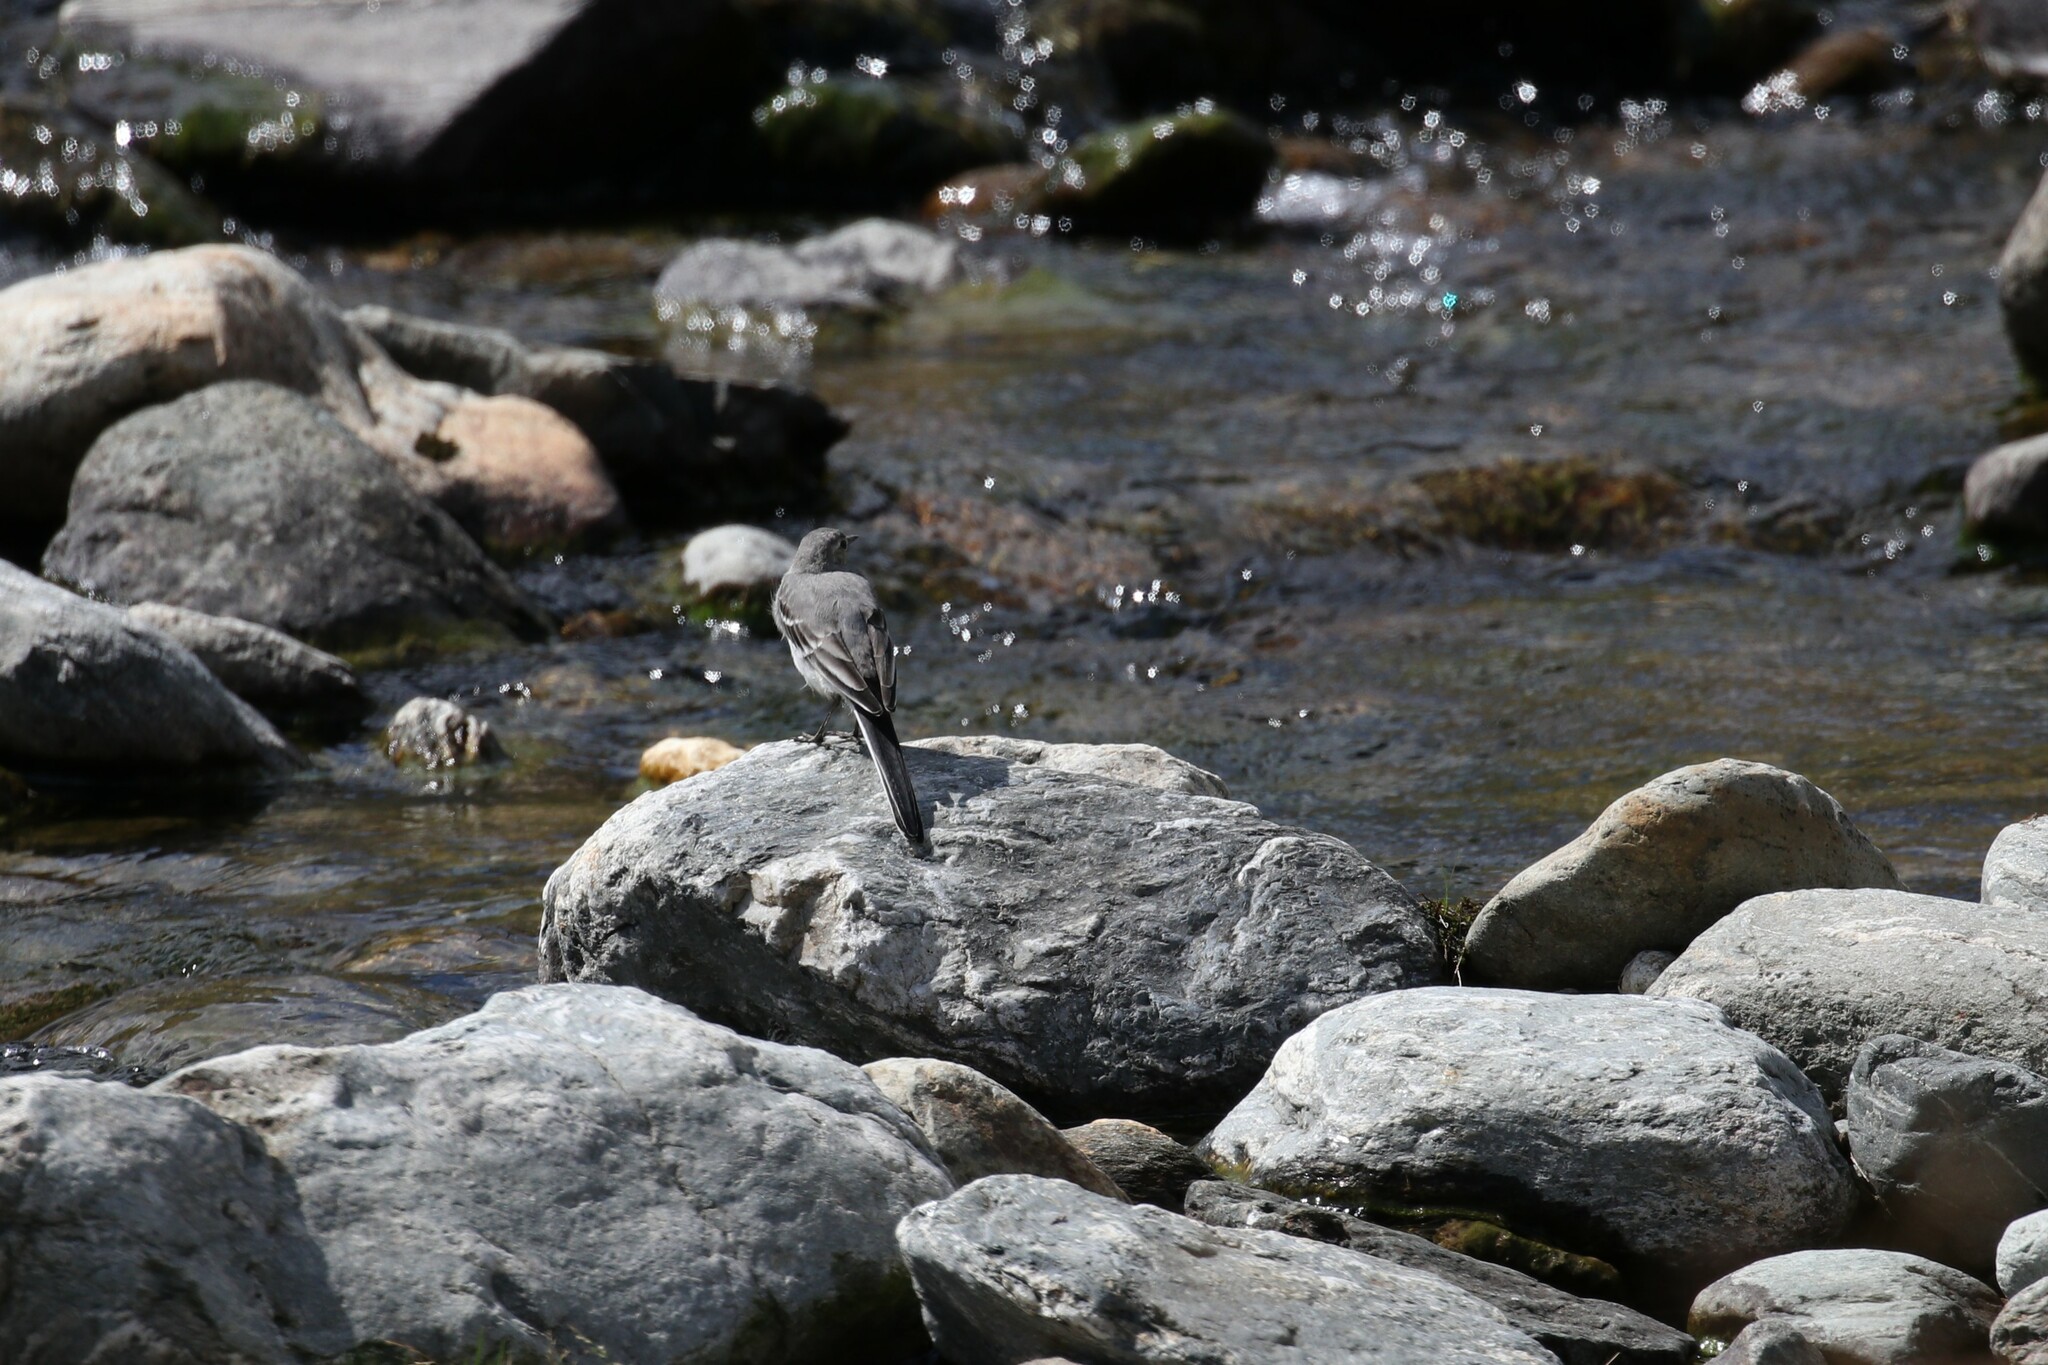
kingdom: Animalia
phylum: Chordata
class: Aves
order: Passeriformes
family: Motacillidae
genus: Motacilla
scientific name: Motacilla alba
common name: White wagtail
